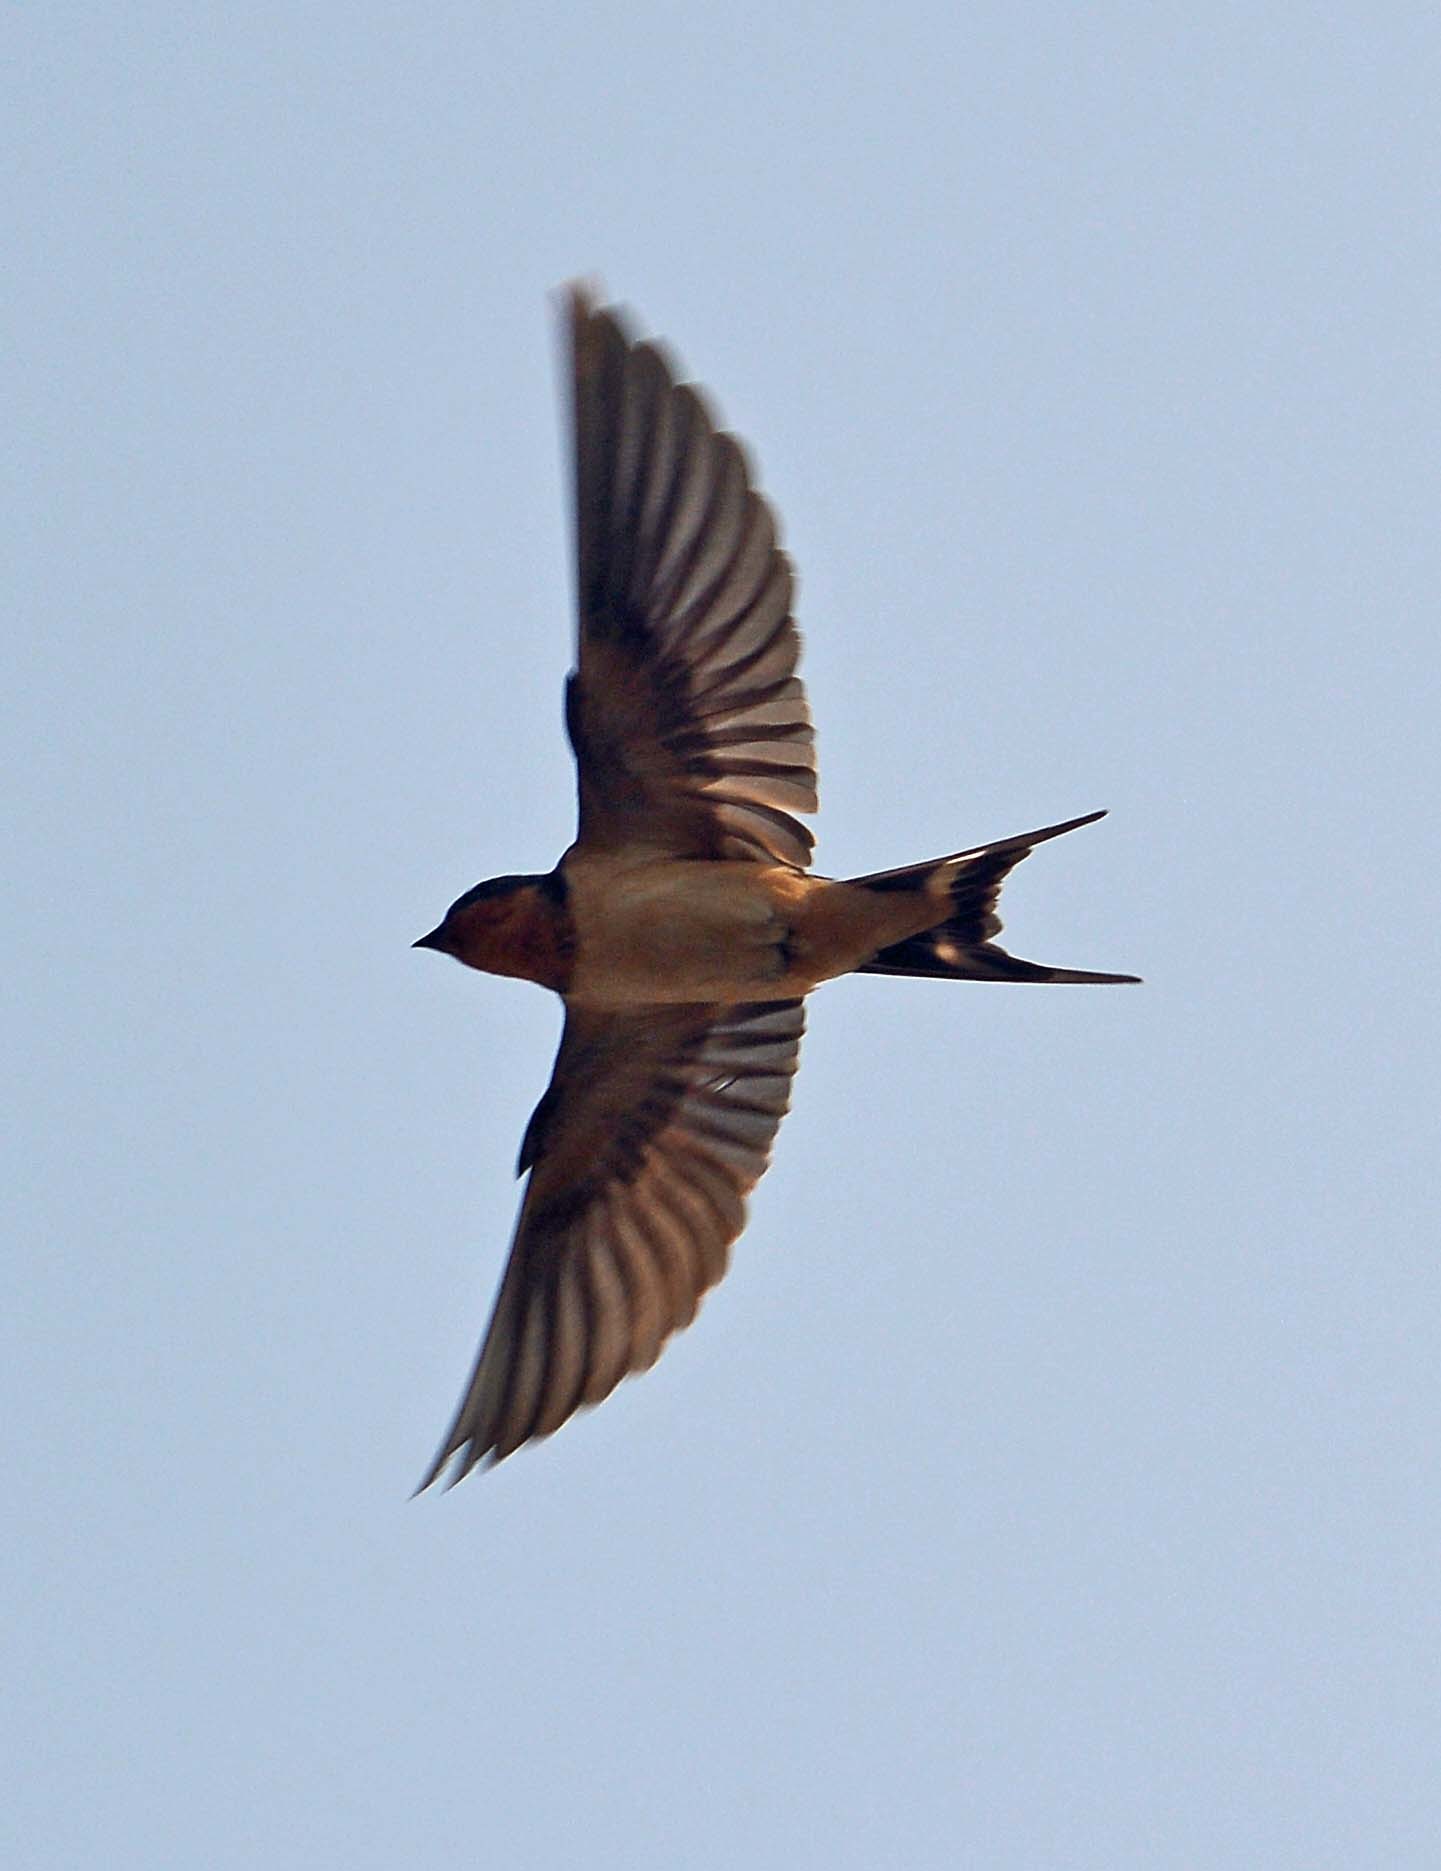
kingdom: Animalia
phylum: Chordata
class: Aves
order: Passeriformes
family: Hirundinidae
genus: Hirundo
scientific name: Hirundo rustica
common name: Barn swallow
